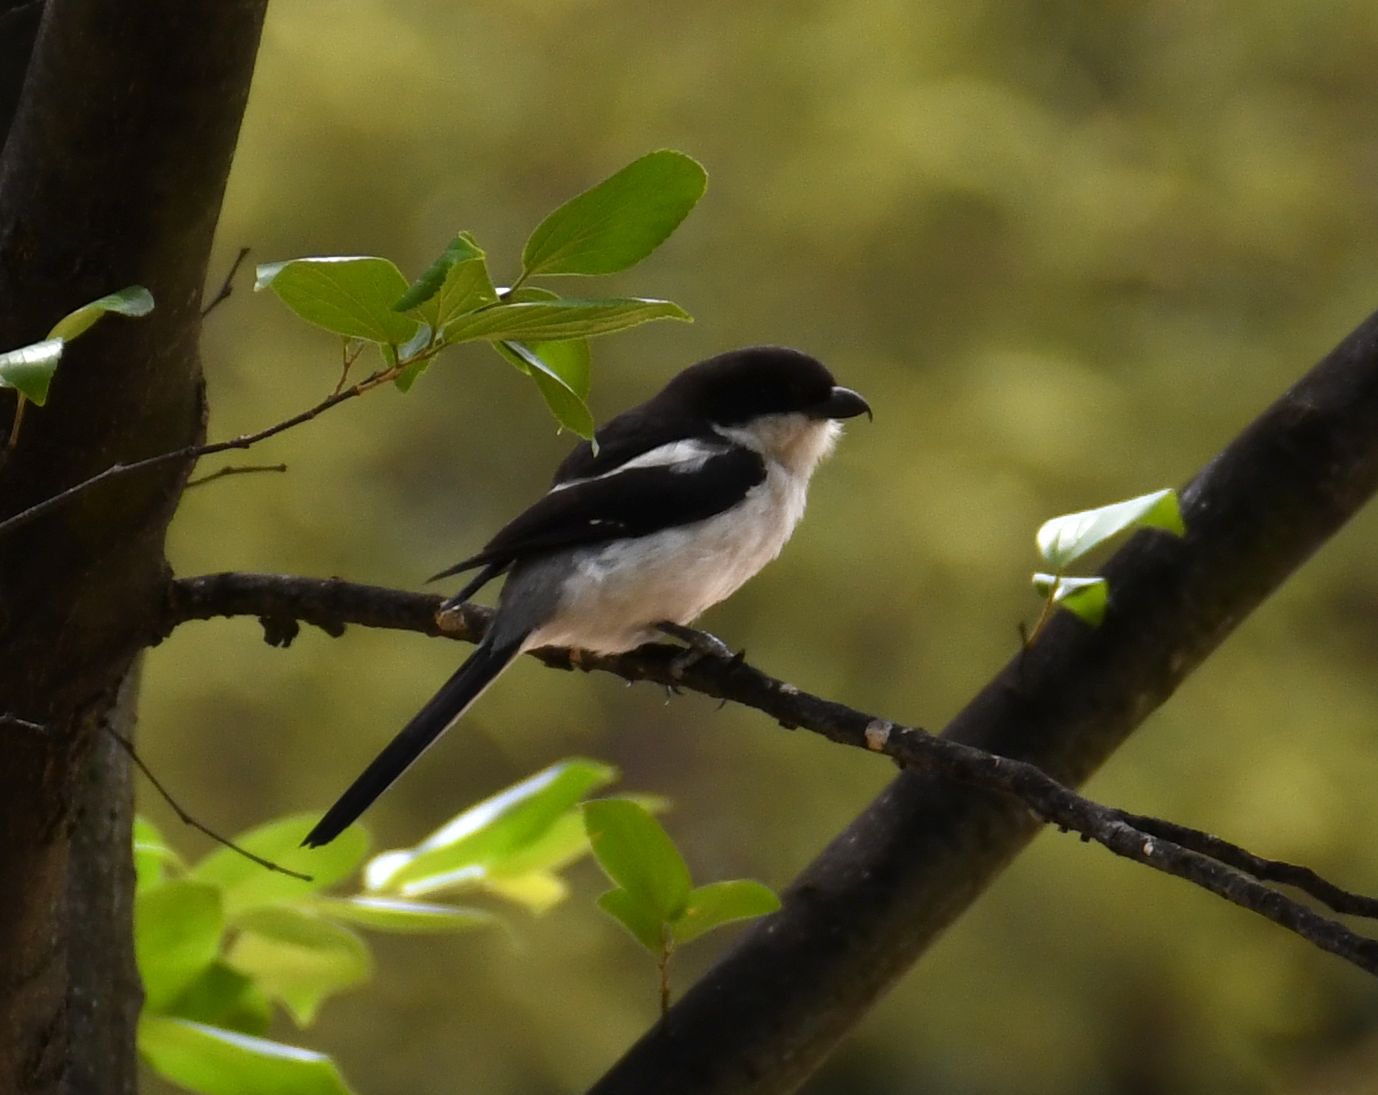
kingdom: Animalia
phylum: Chordata
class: Aves
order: Passeriformes
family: Laniidae
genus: Lanius
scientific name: Lanius collaris
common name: Southern fiscal
